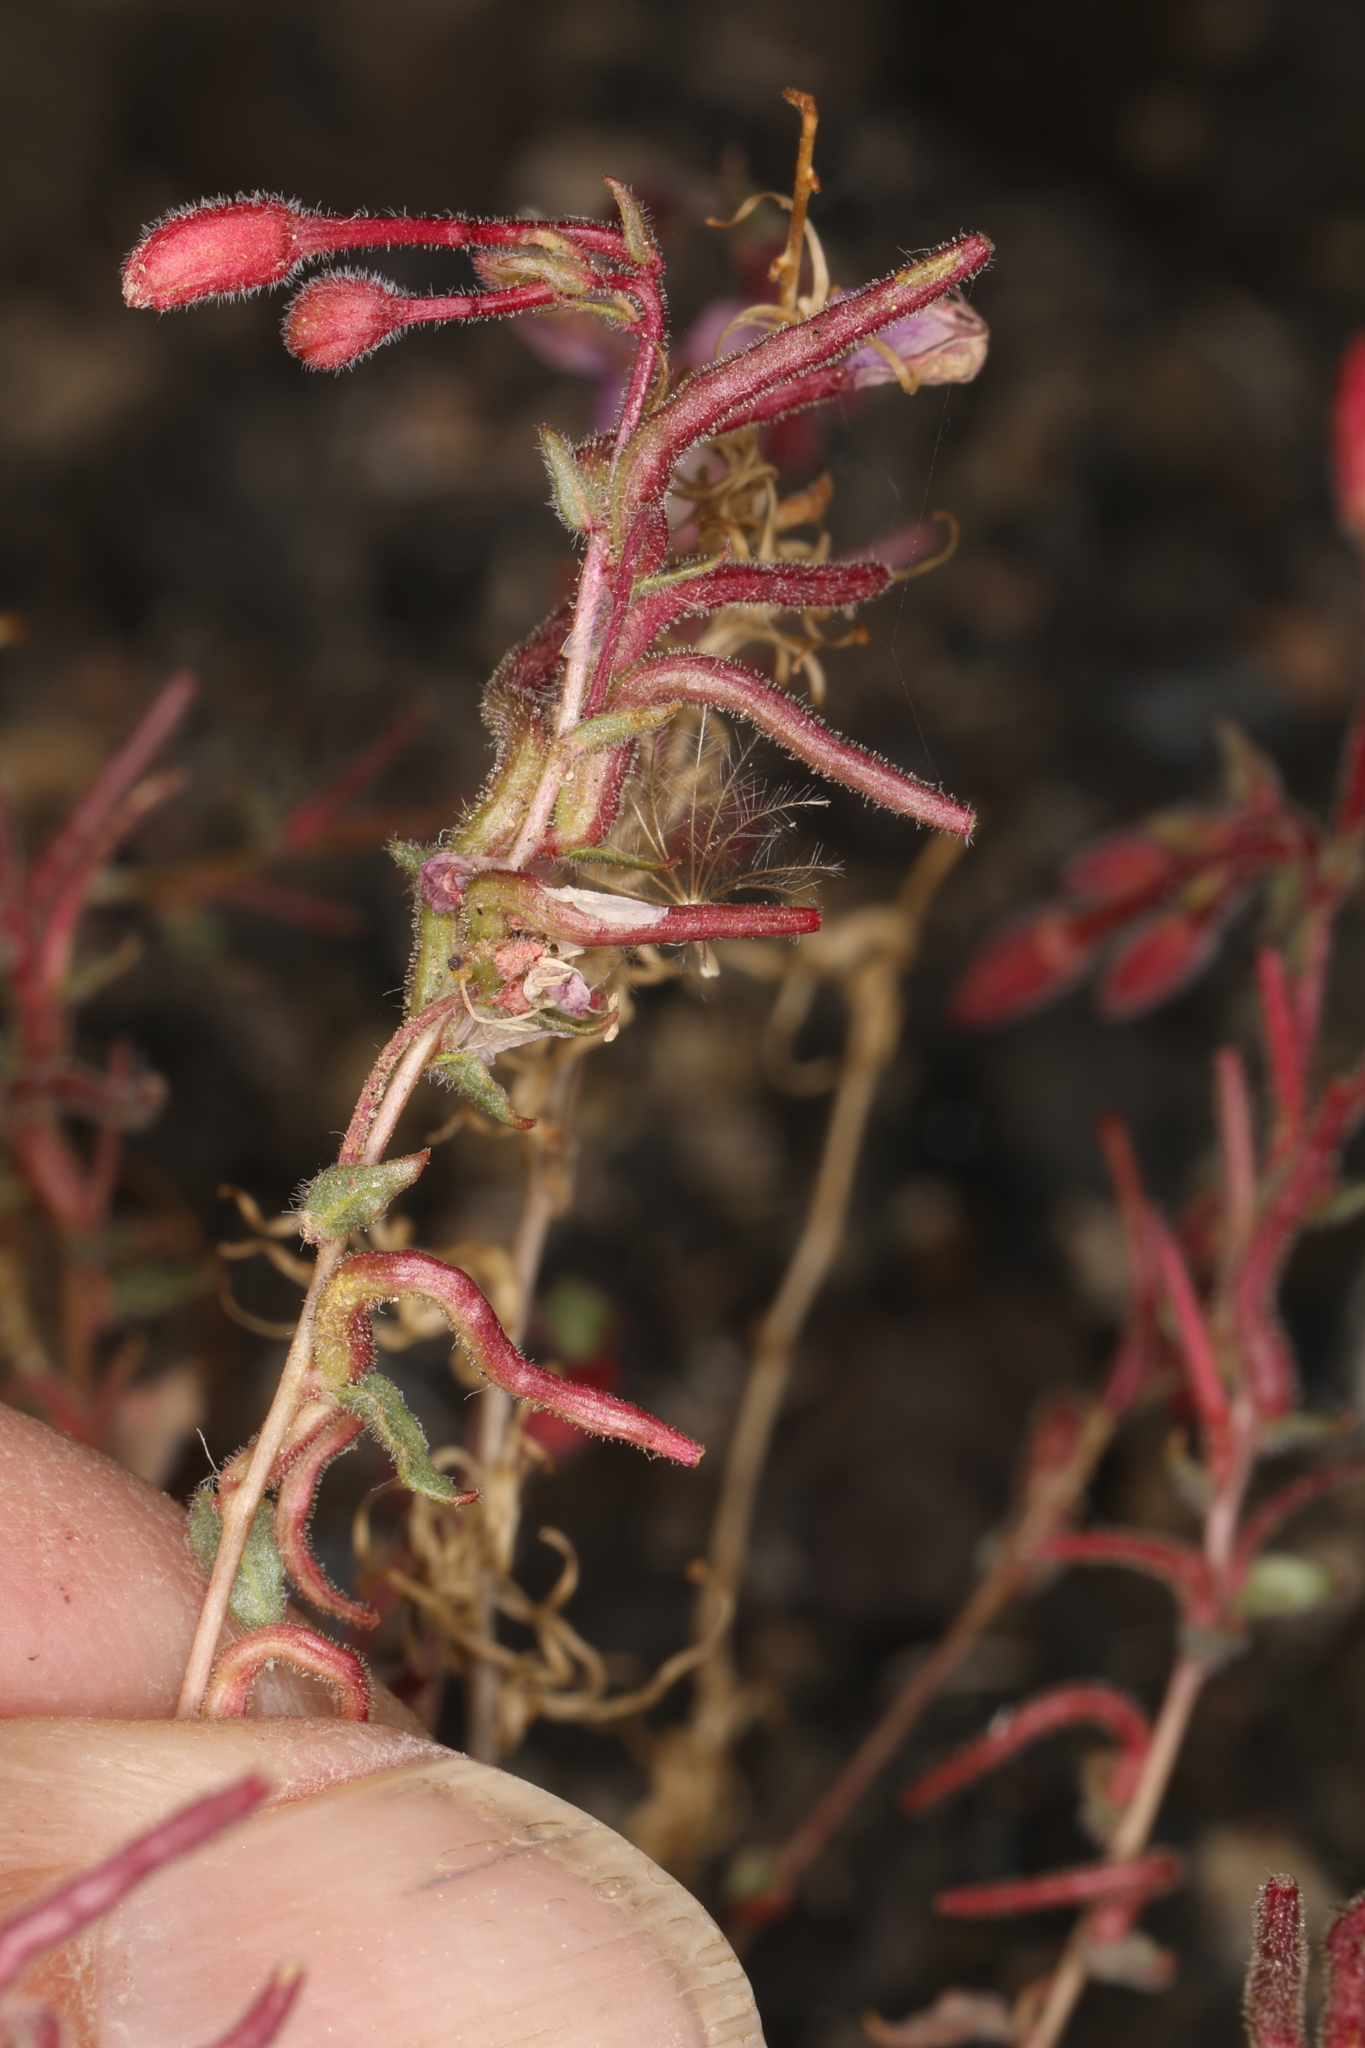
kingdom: Plantae
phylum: Tracheophyta
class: Magnoliopsida
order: Myrtales
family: Onagraceae
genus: Eremothera
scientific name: Eremothera boothii
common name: Booth's evening primrose
